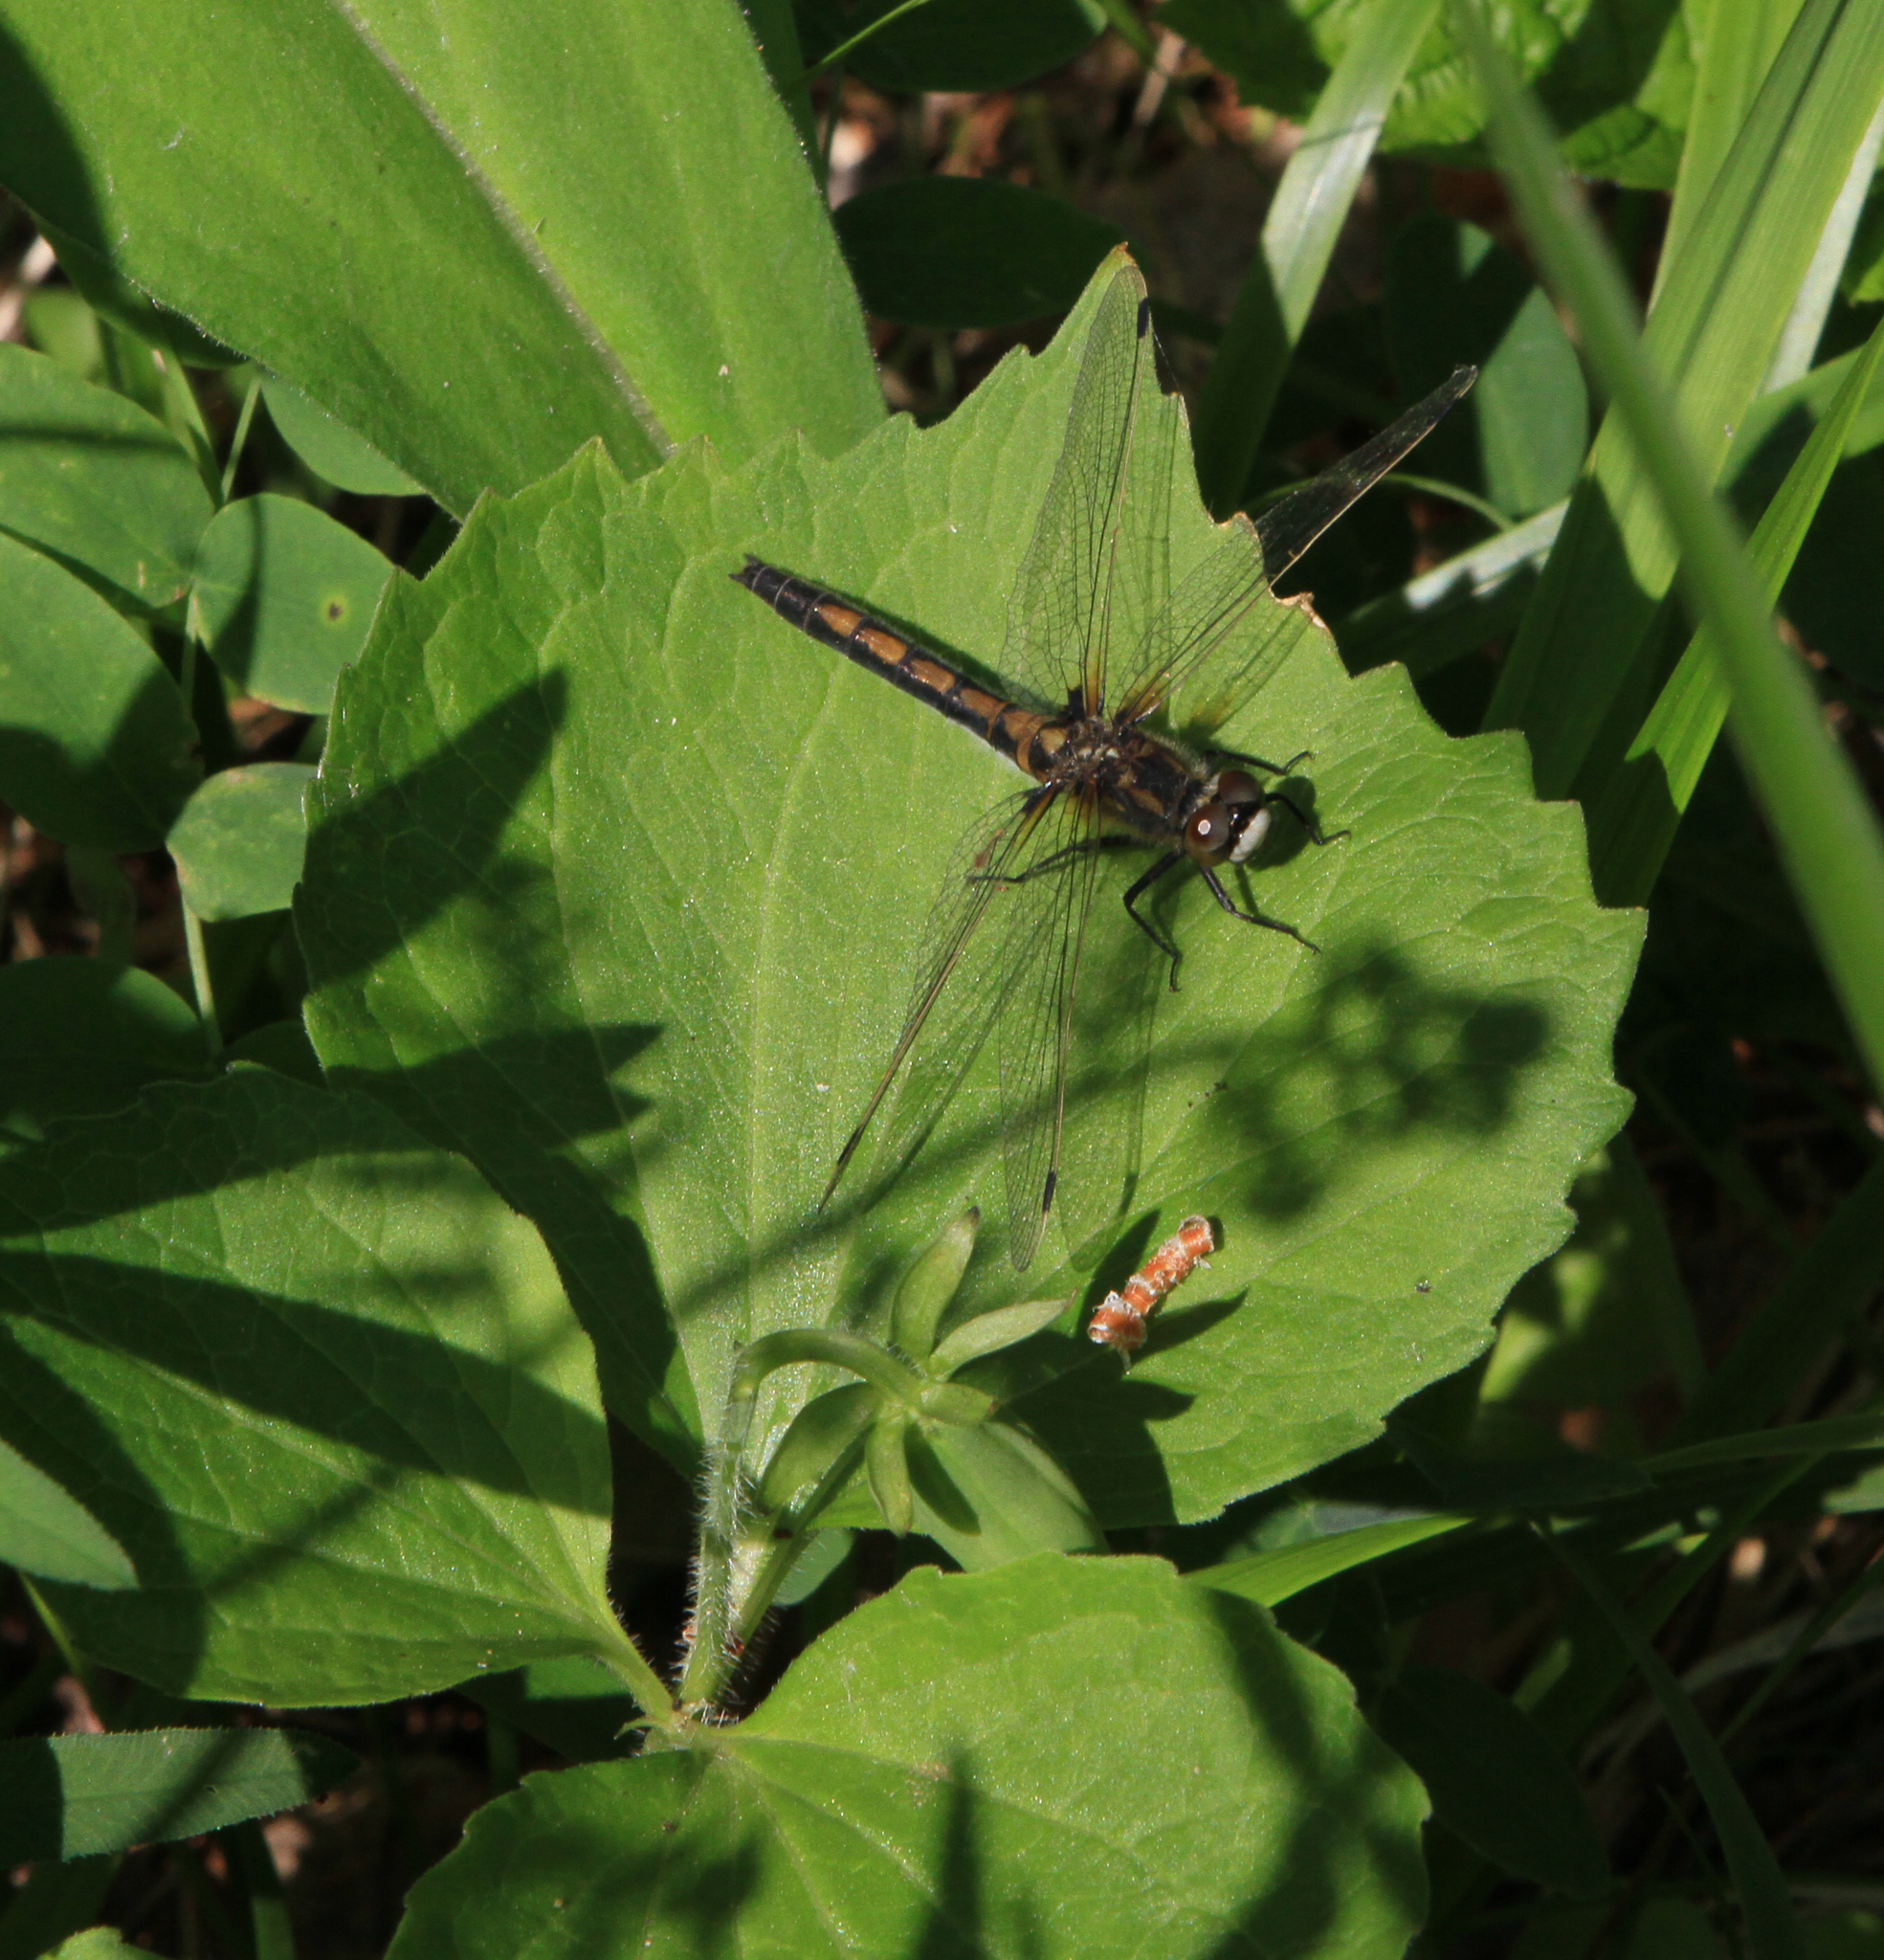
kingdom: Plantae
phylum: Tracheophyta
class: Magnoliopsida
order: Malpighiales
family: Violaceae
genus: Viola
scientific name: Viola uniflora
